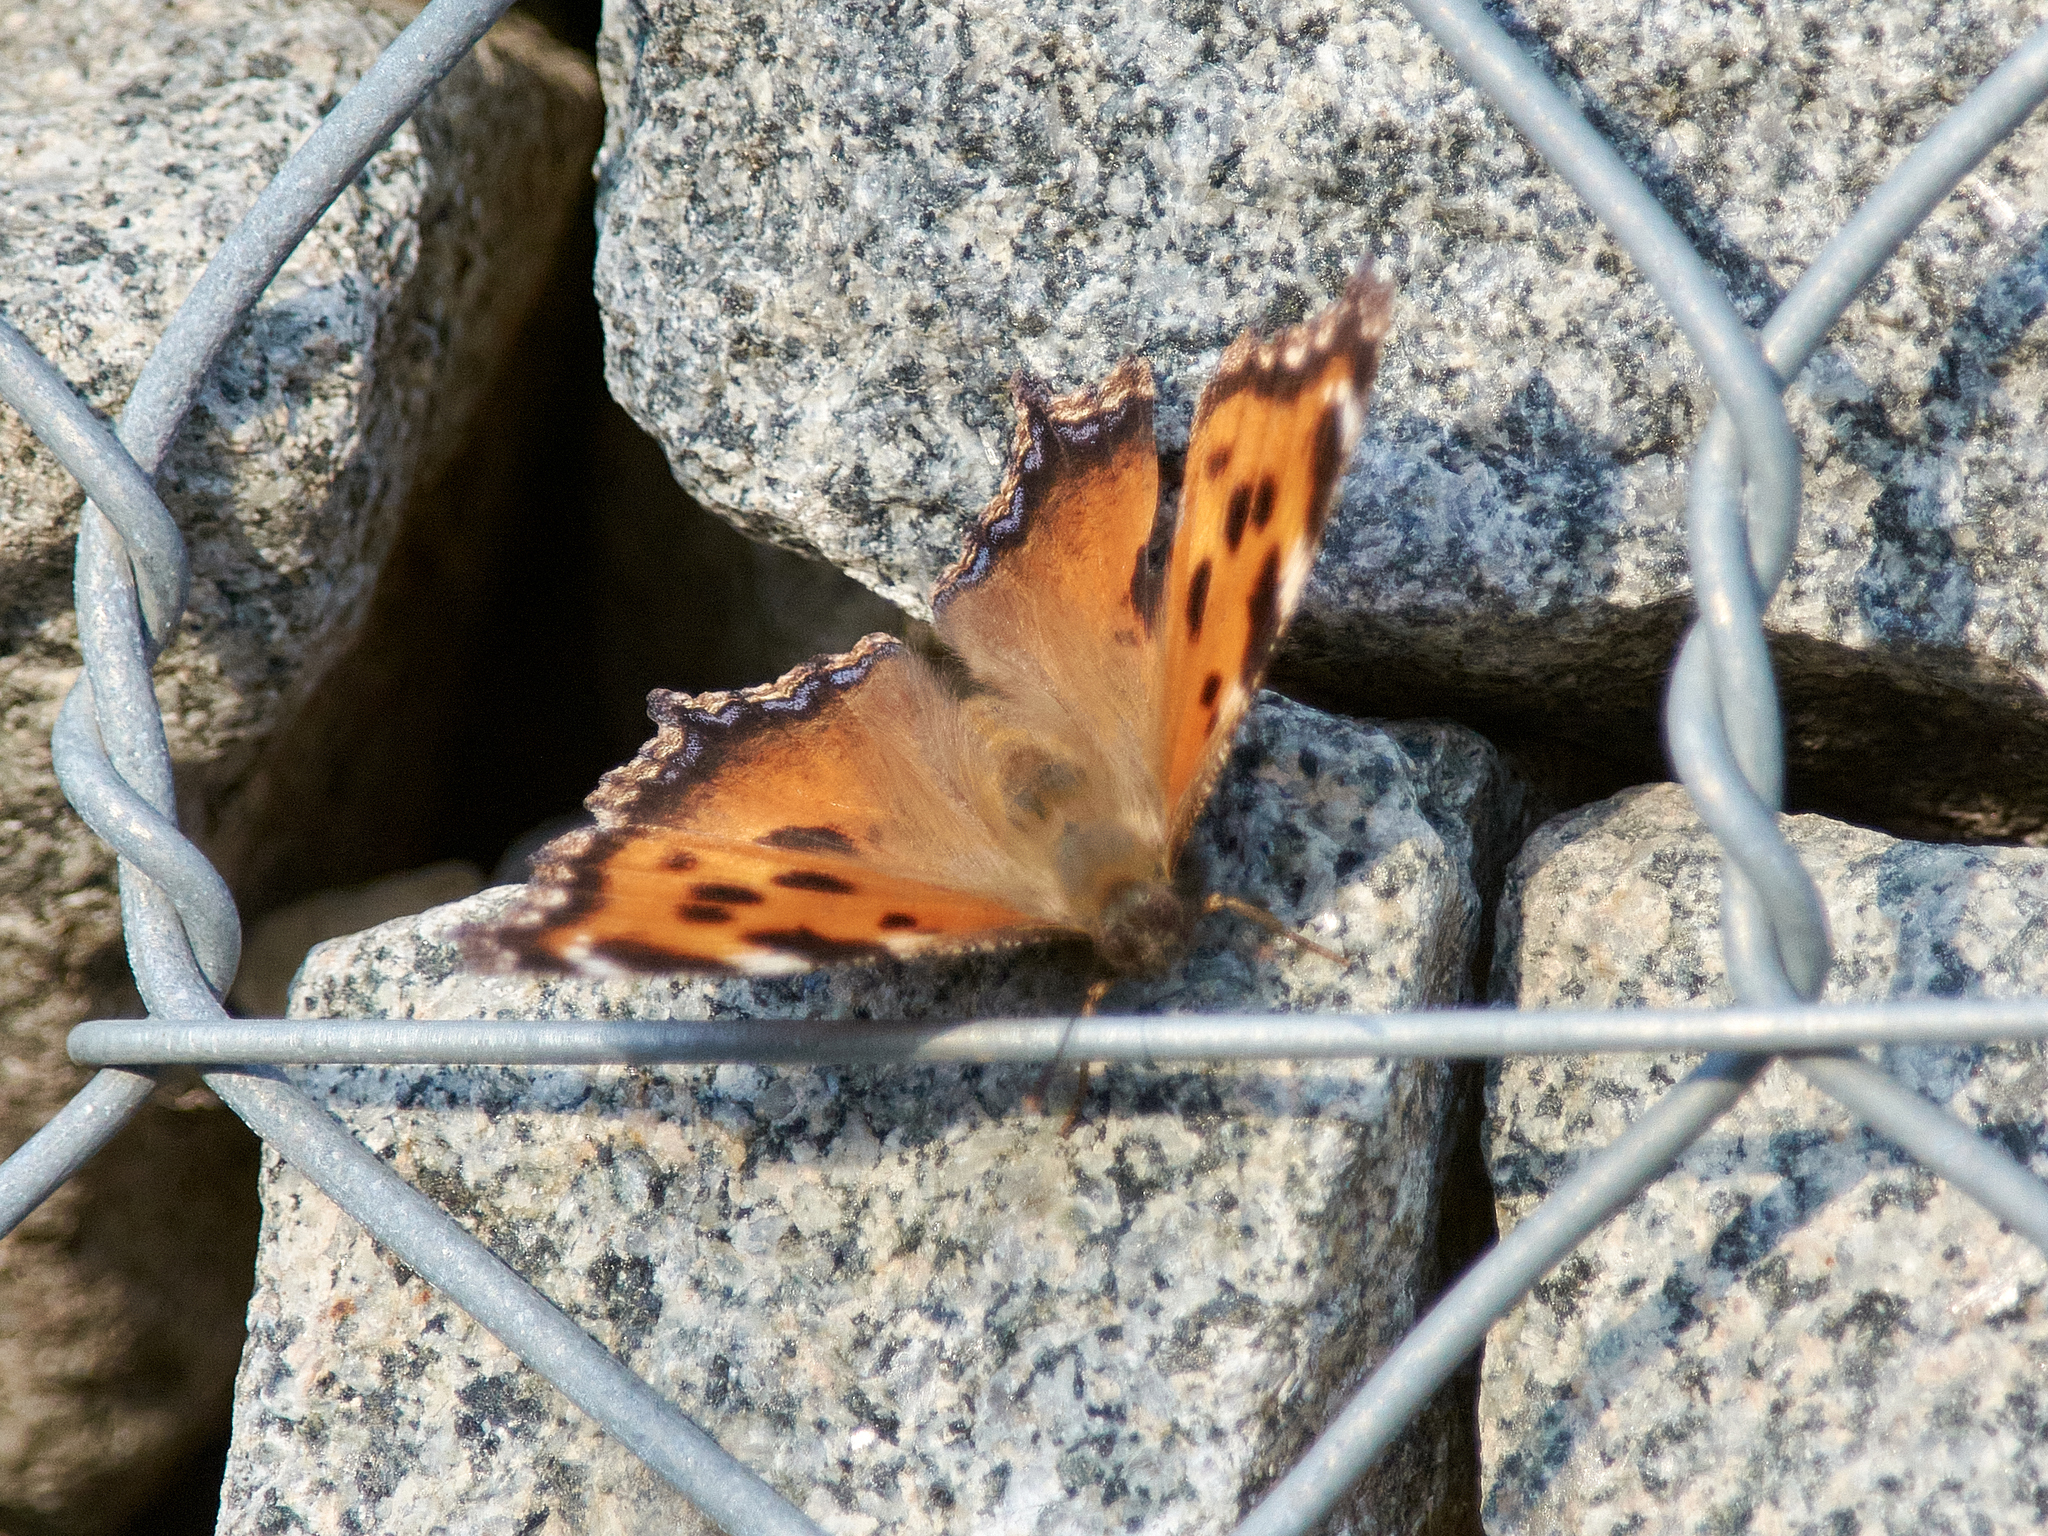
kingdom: Animalia
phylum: Arthropoda
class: Insecta
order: Lepidoptera
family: Nymphalidae
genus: Nymphalis
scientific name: Nymphalis xanthomelas
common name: Scarce tortoiseshell
